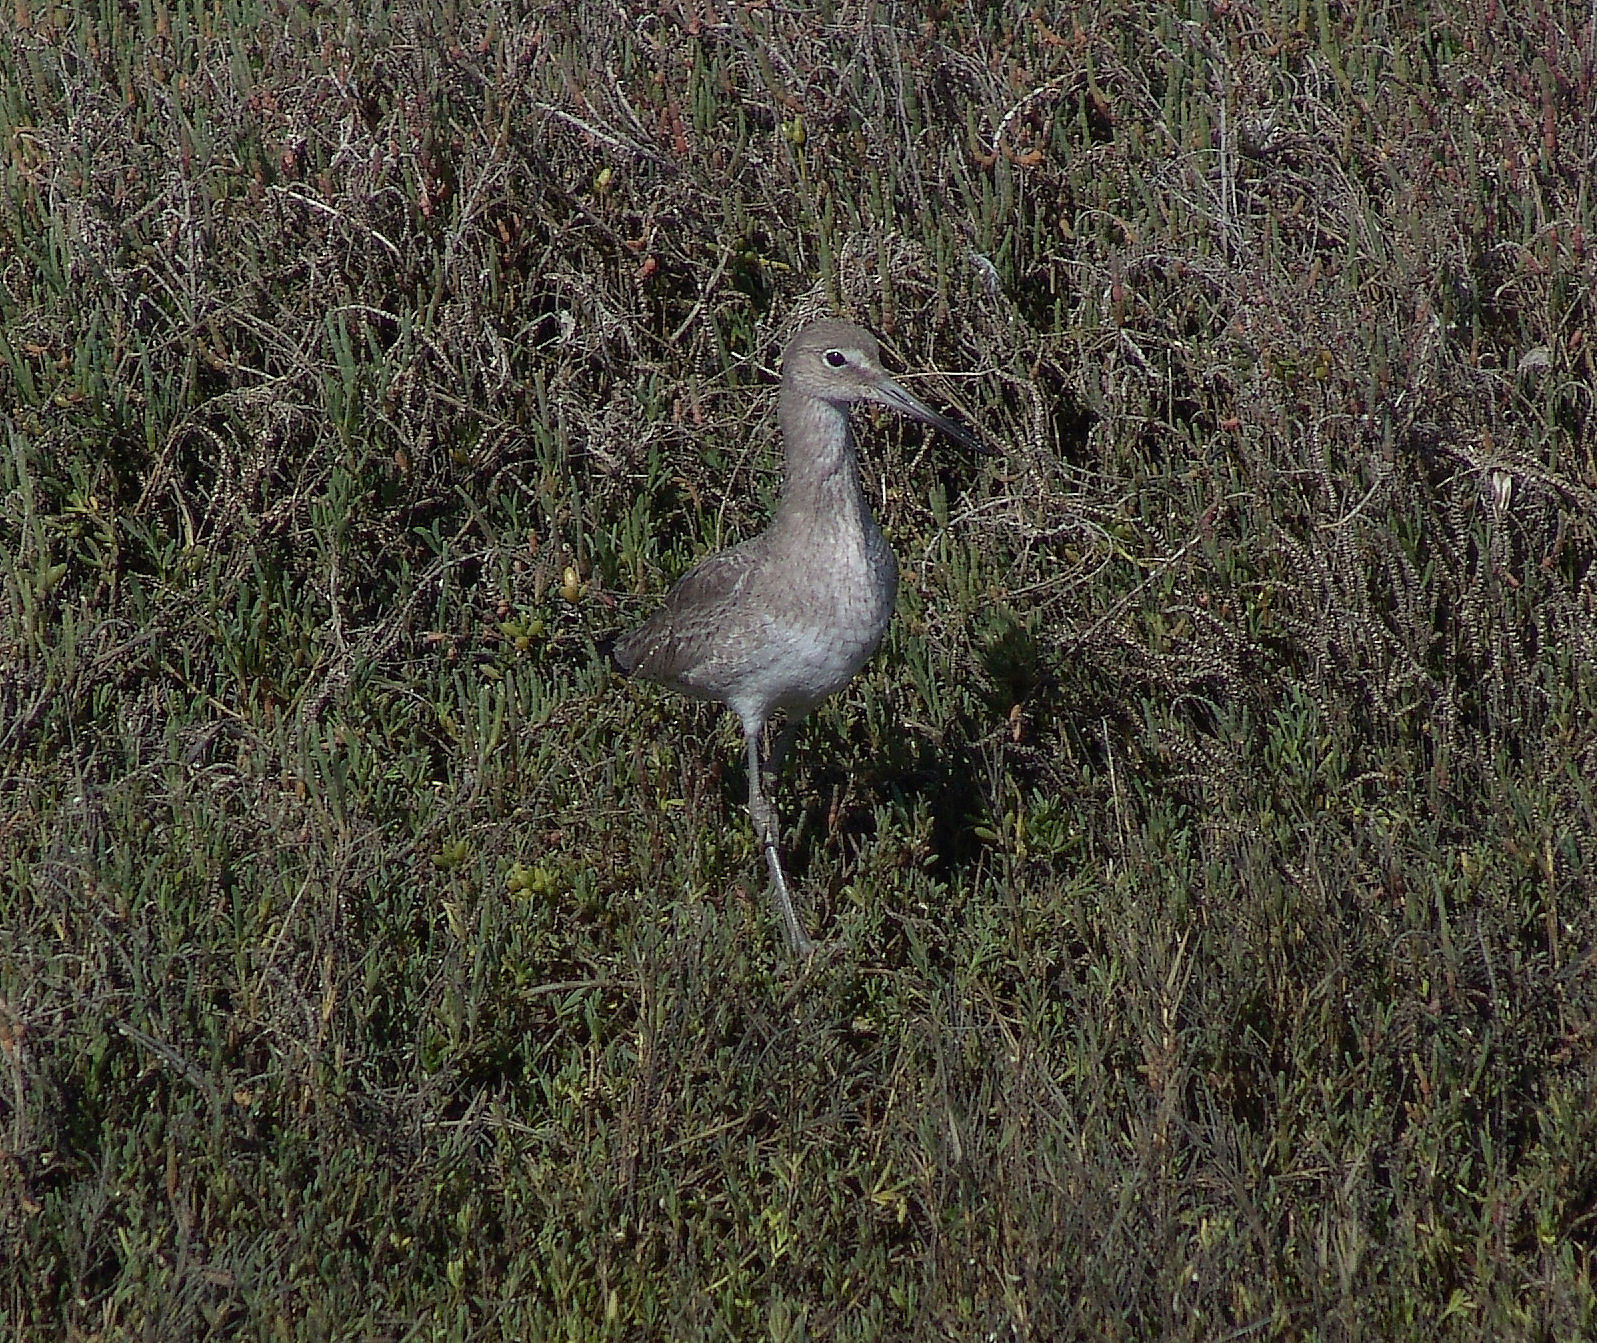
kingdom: Animalia
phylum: Chordata
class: Aves
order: Charadriiformes
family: Scolopacidae
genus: Tringa
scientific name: Tringa semipalmata
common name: Willet
